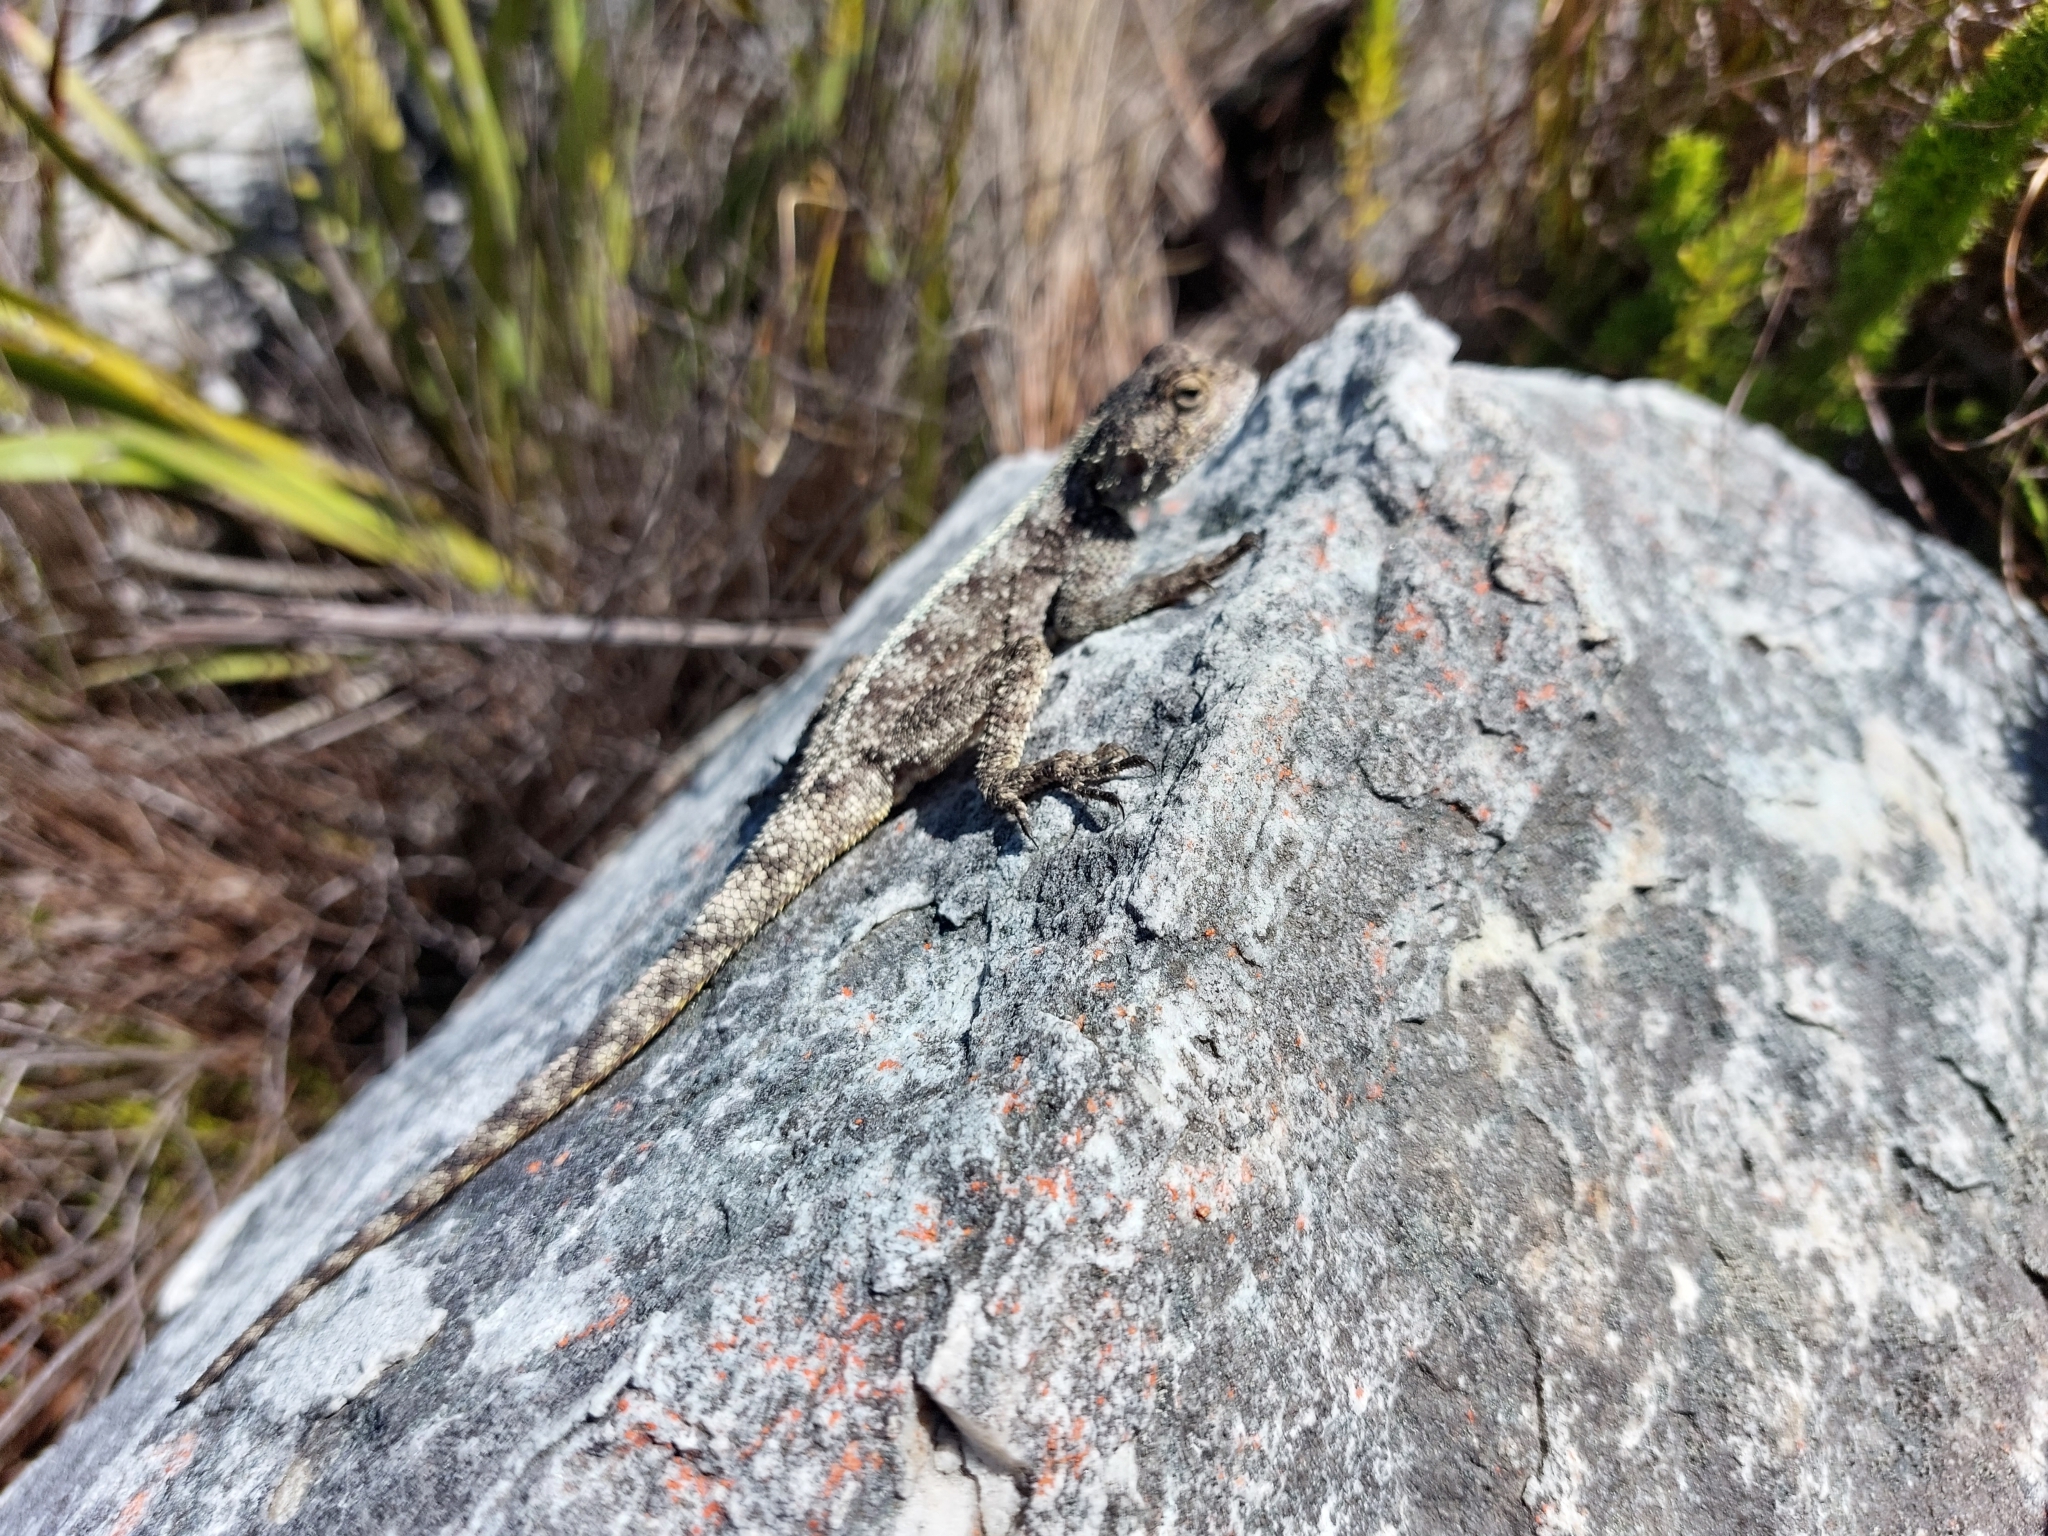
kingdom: Animalia
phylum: Chordata
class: Squamata
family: Agamidae
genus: Agama
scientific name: Agama atra
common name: Southern african rock agama
